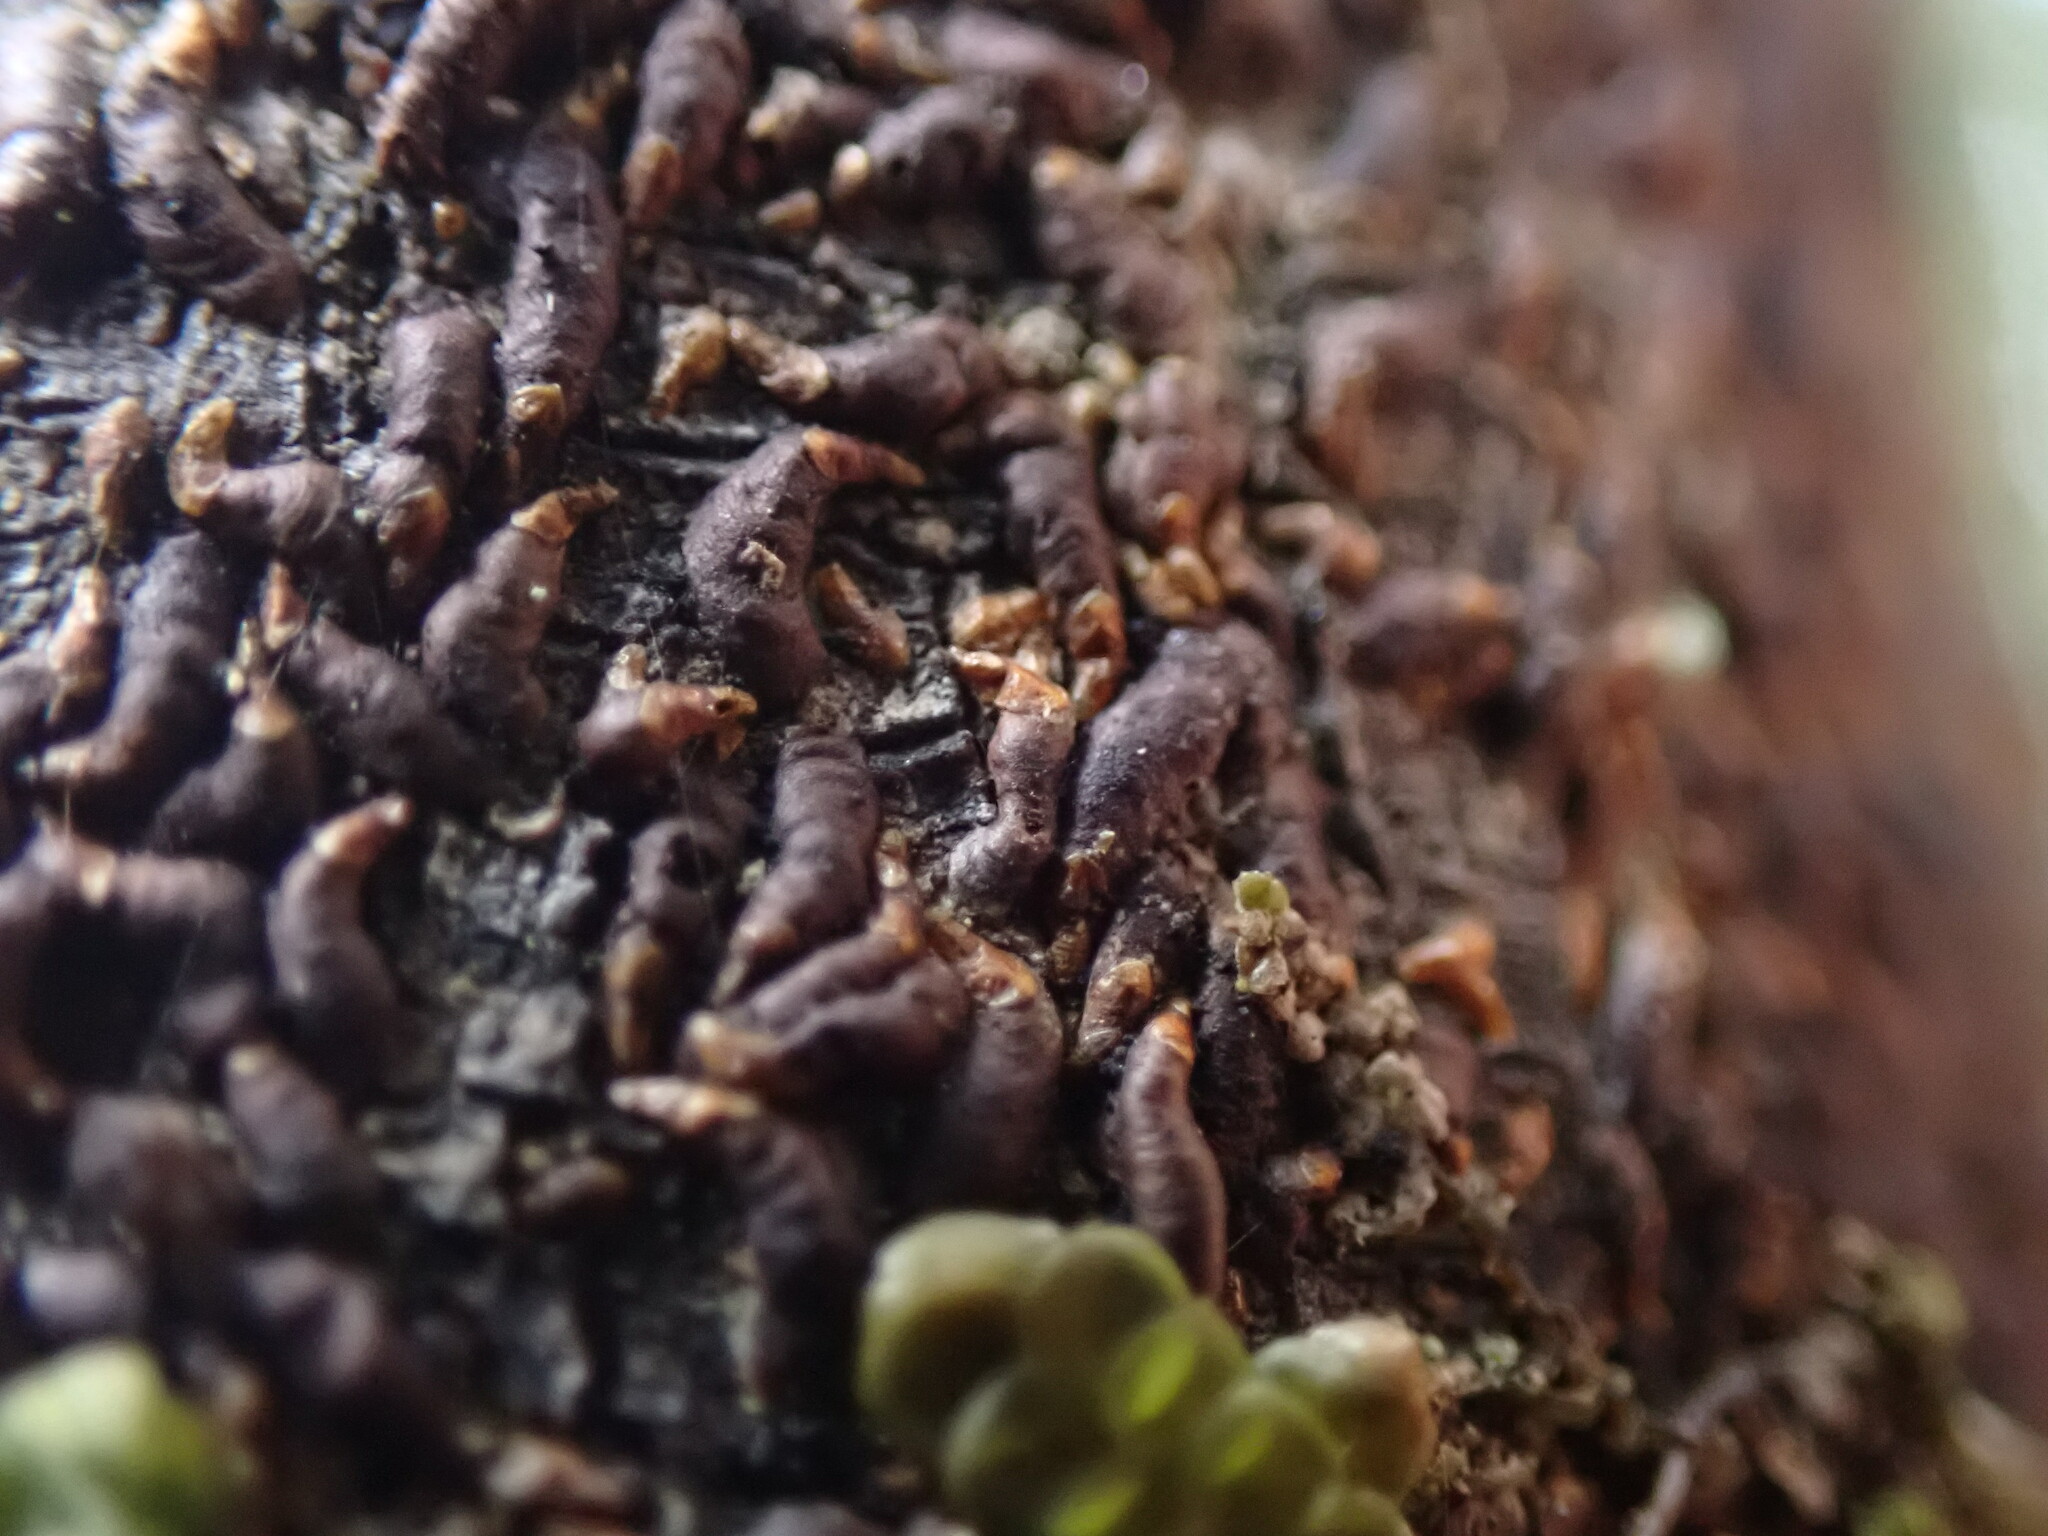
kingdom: Animalia
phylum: Arthropoda
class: Insecta
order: Hemiptera
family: Diaspididae
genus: Lepidosaphes
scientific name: Lepidosaphes ulmi
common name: Oystershell scale
